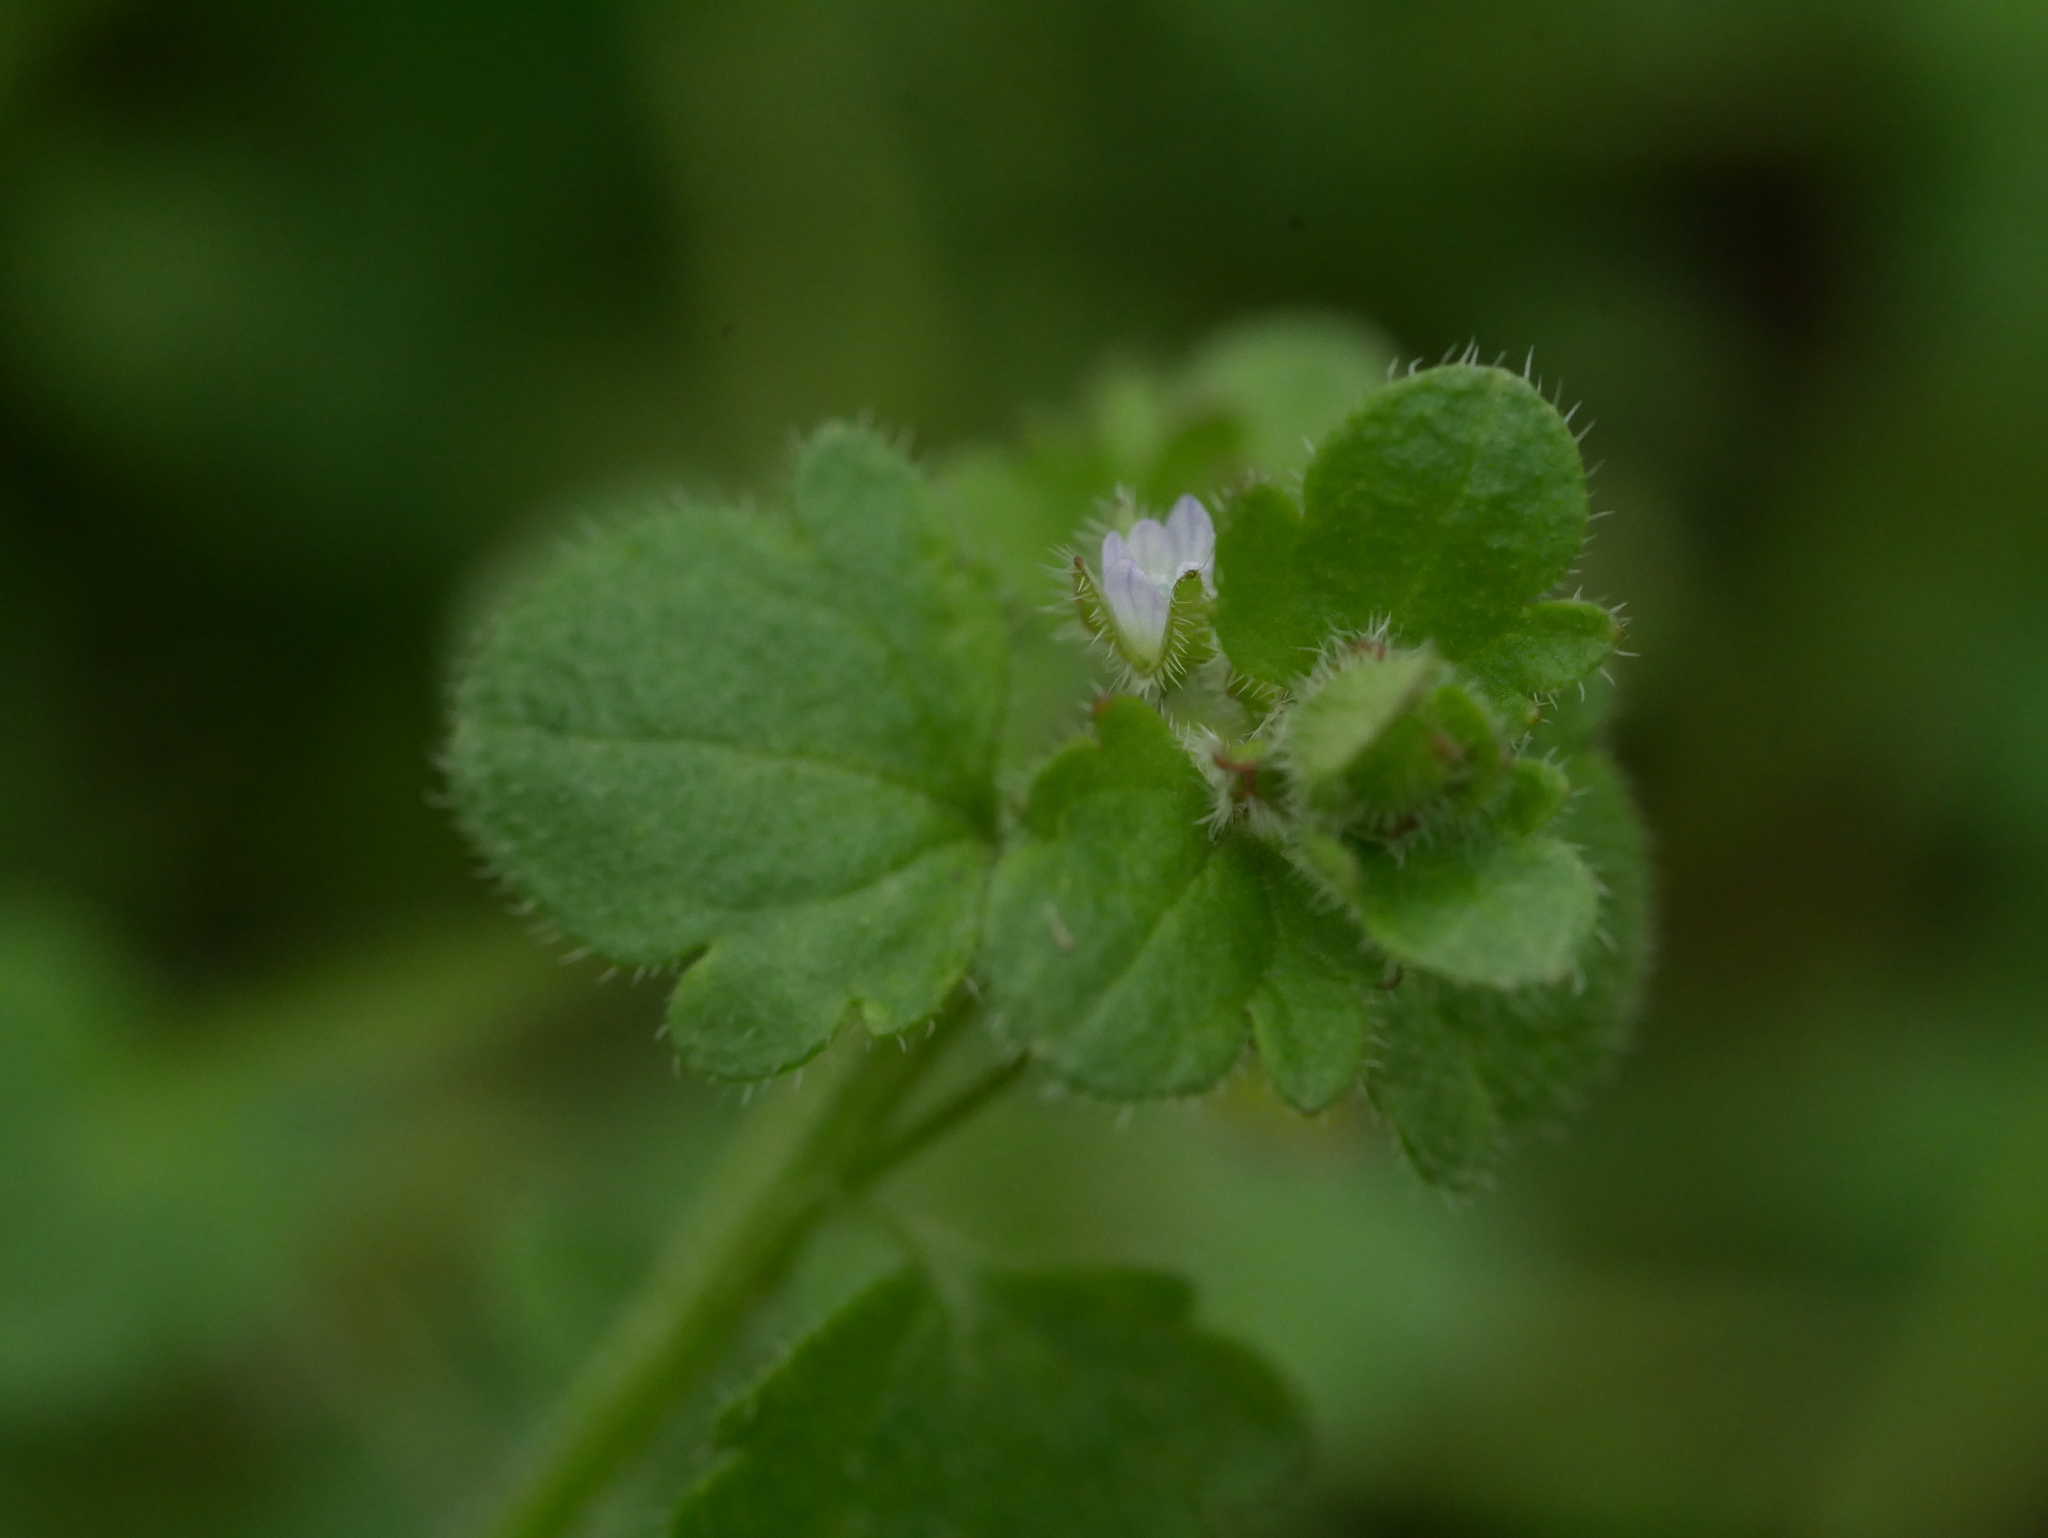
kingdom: Plantae
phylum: Tracheophyta
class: Magnoliopsida
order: Lamiales
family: Plantaginaceae
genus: Veronica
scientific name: Veronica sublobata
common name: False ivy-leaved speedwell
